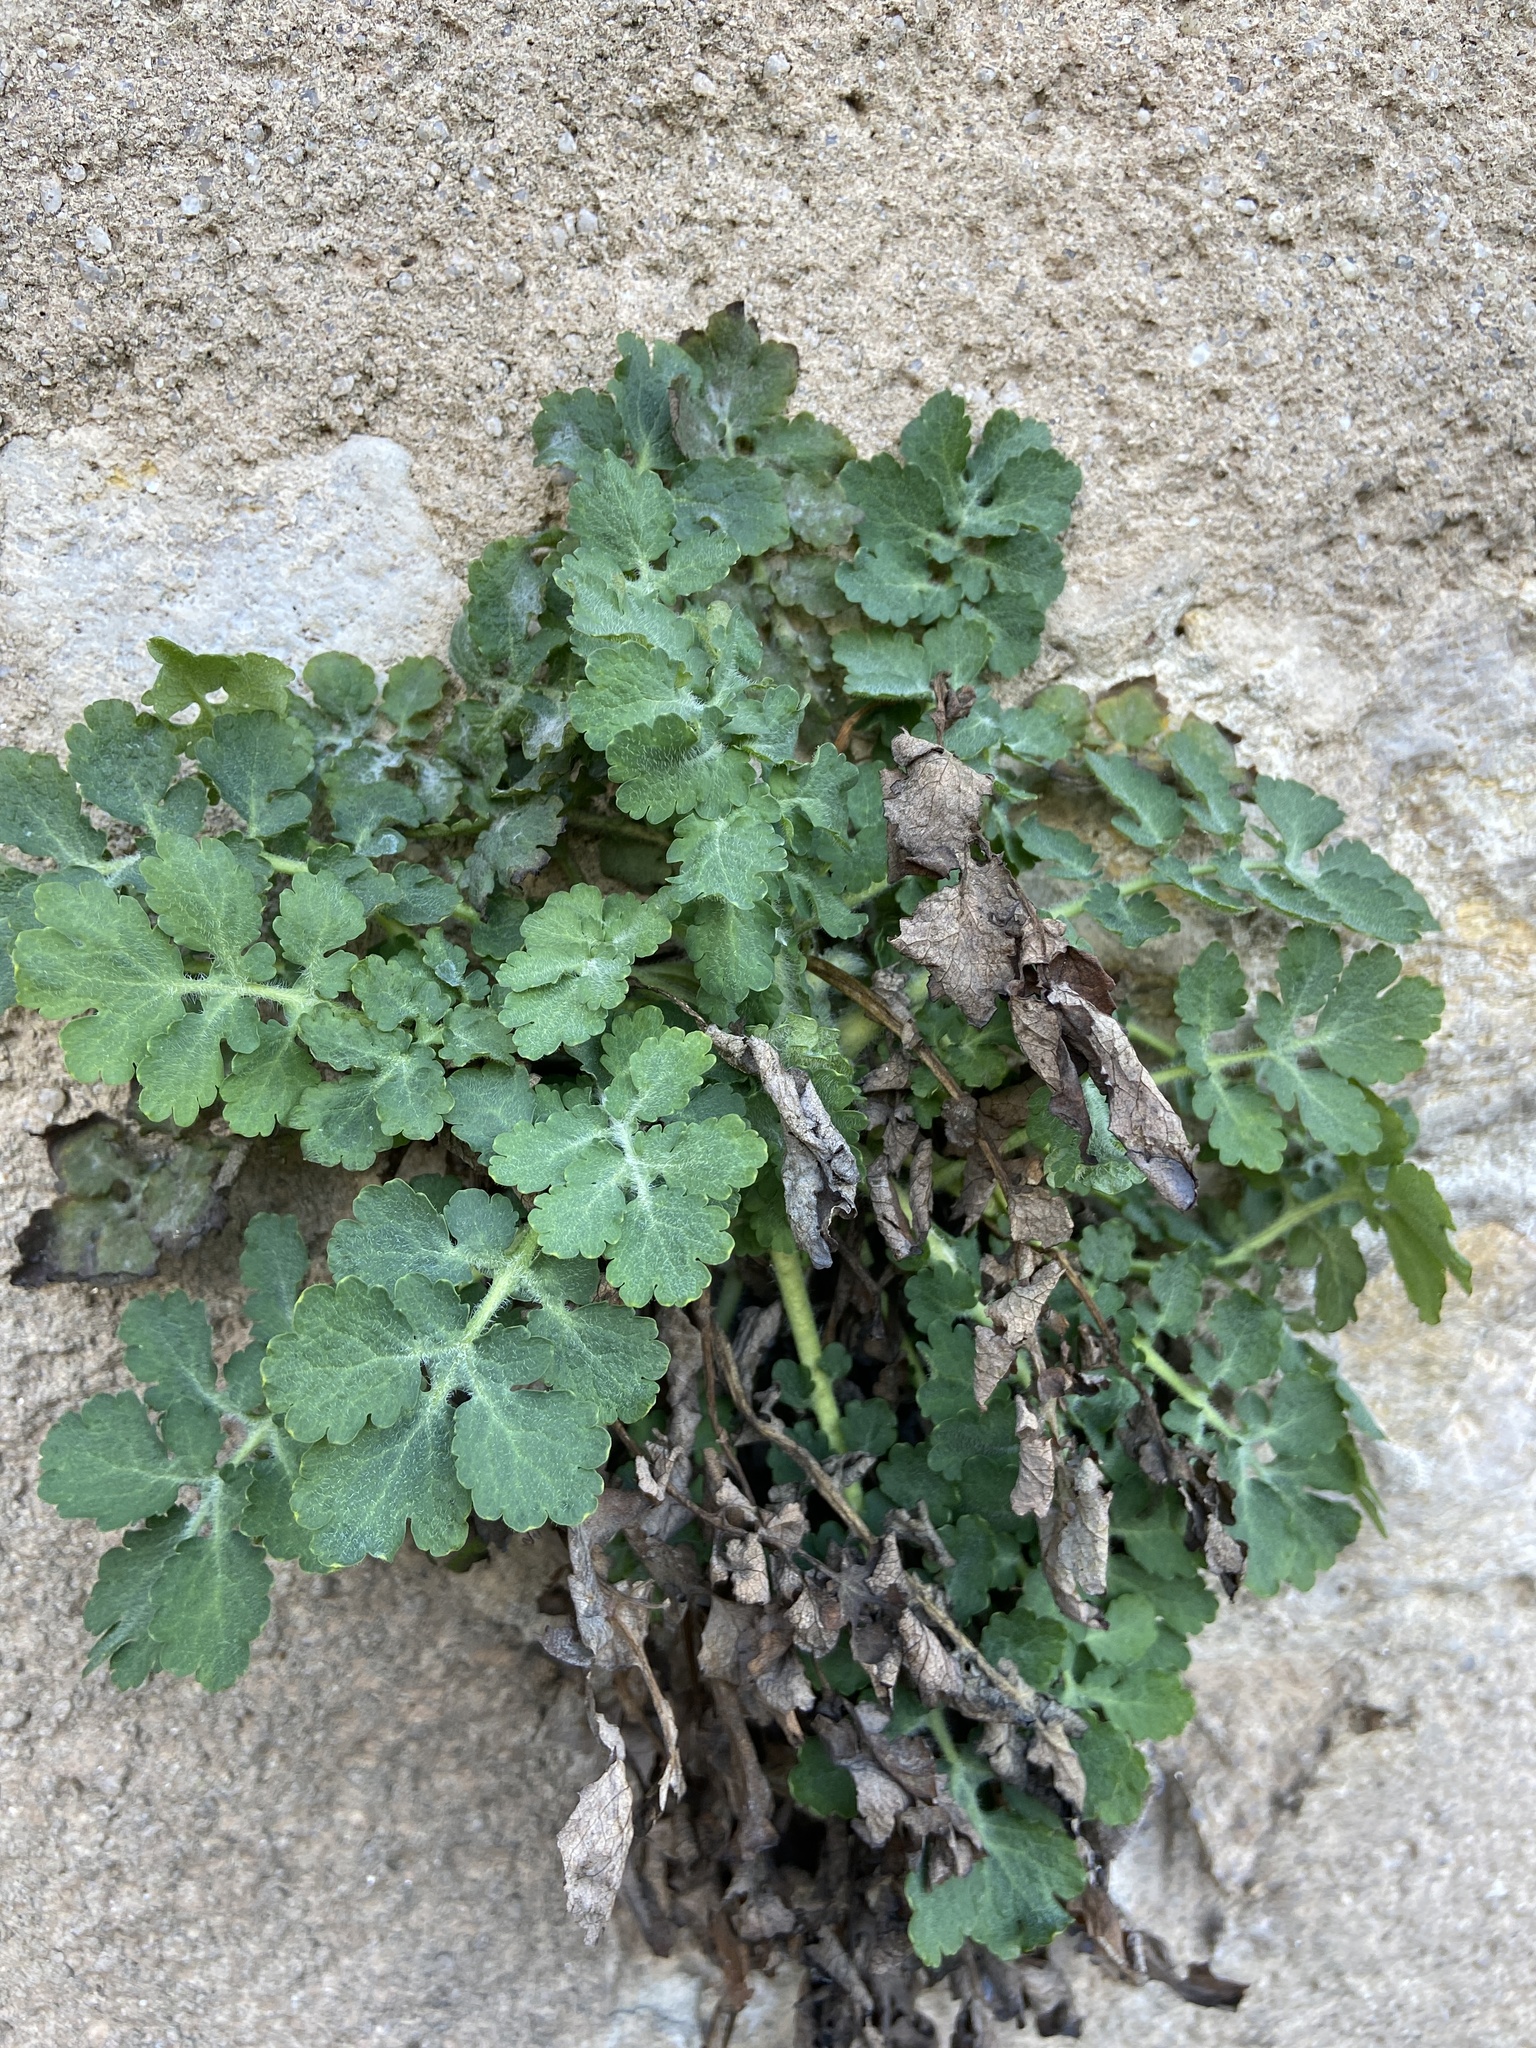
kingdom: Plantae
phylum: Tracheophyta
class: Magnoliopsida
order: Ranunculales
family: Papaveraceae
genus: Chelidonium
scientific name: Chelidonium majus
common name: Greater celandine
